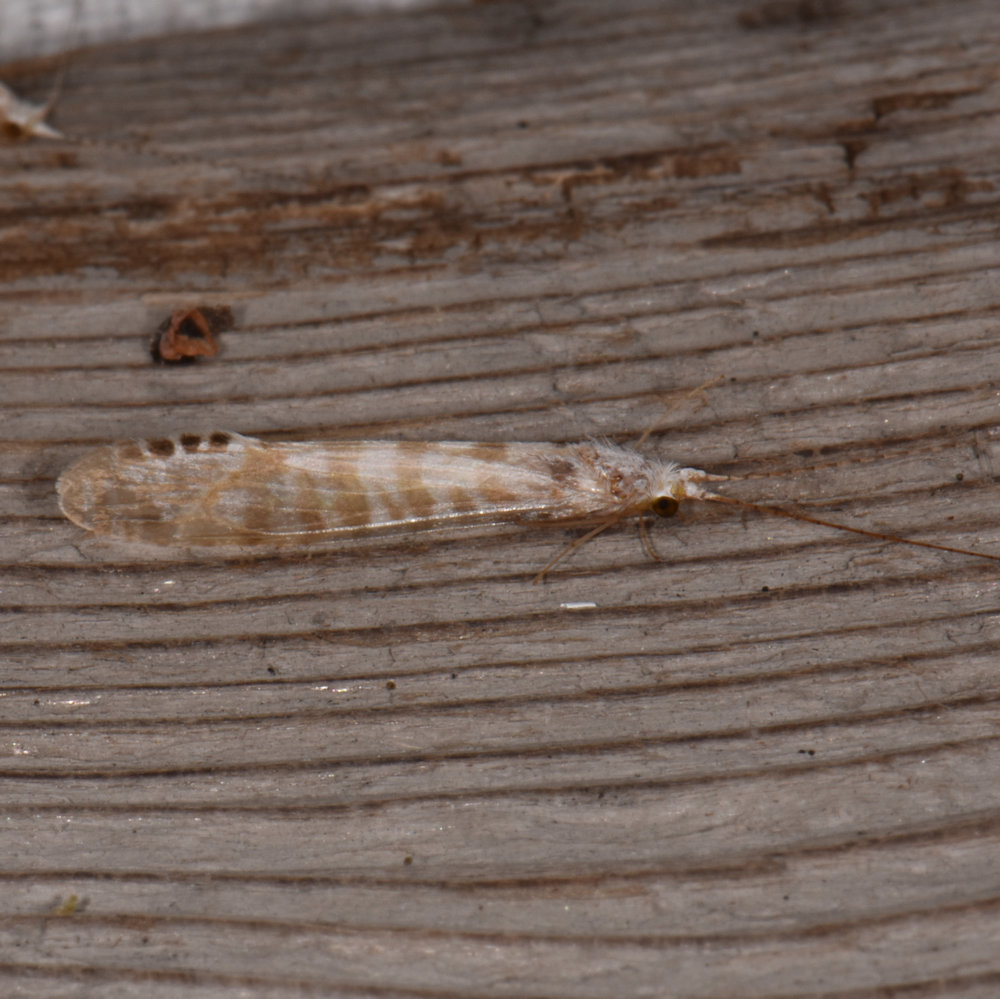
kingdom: Animalia
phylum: Arthropoda
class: Insecta
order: Trichoptera
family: Leptoceridae
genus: Nectopsyche
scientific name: Nectopsyche exquisita
